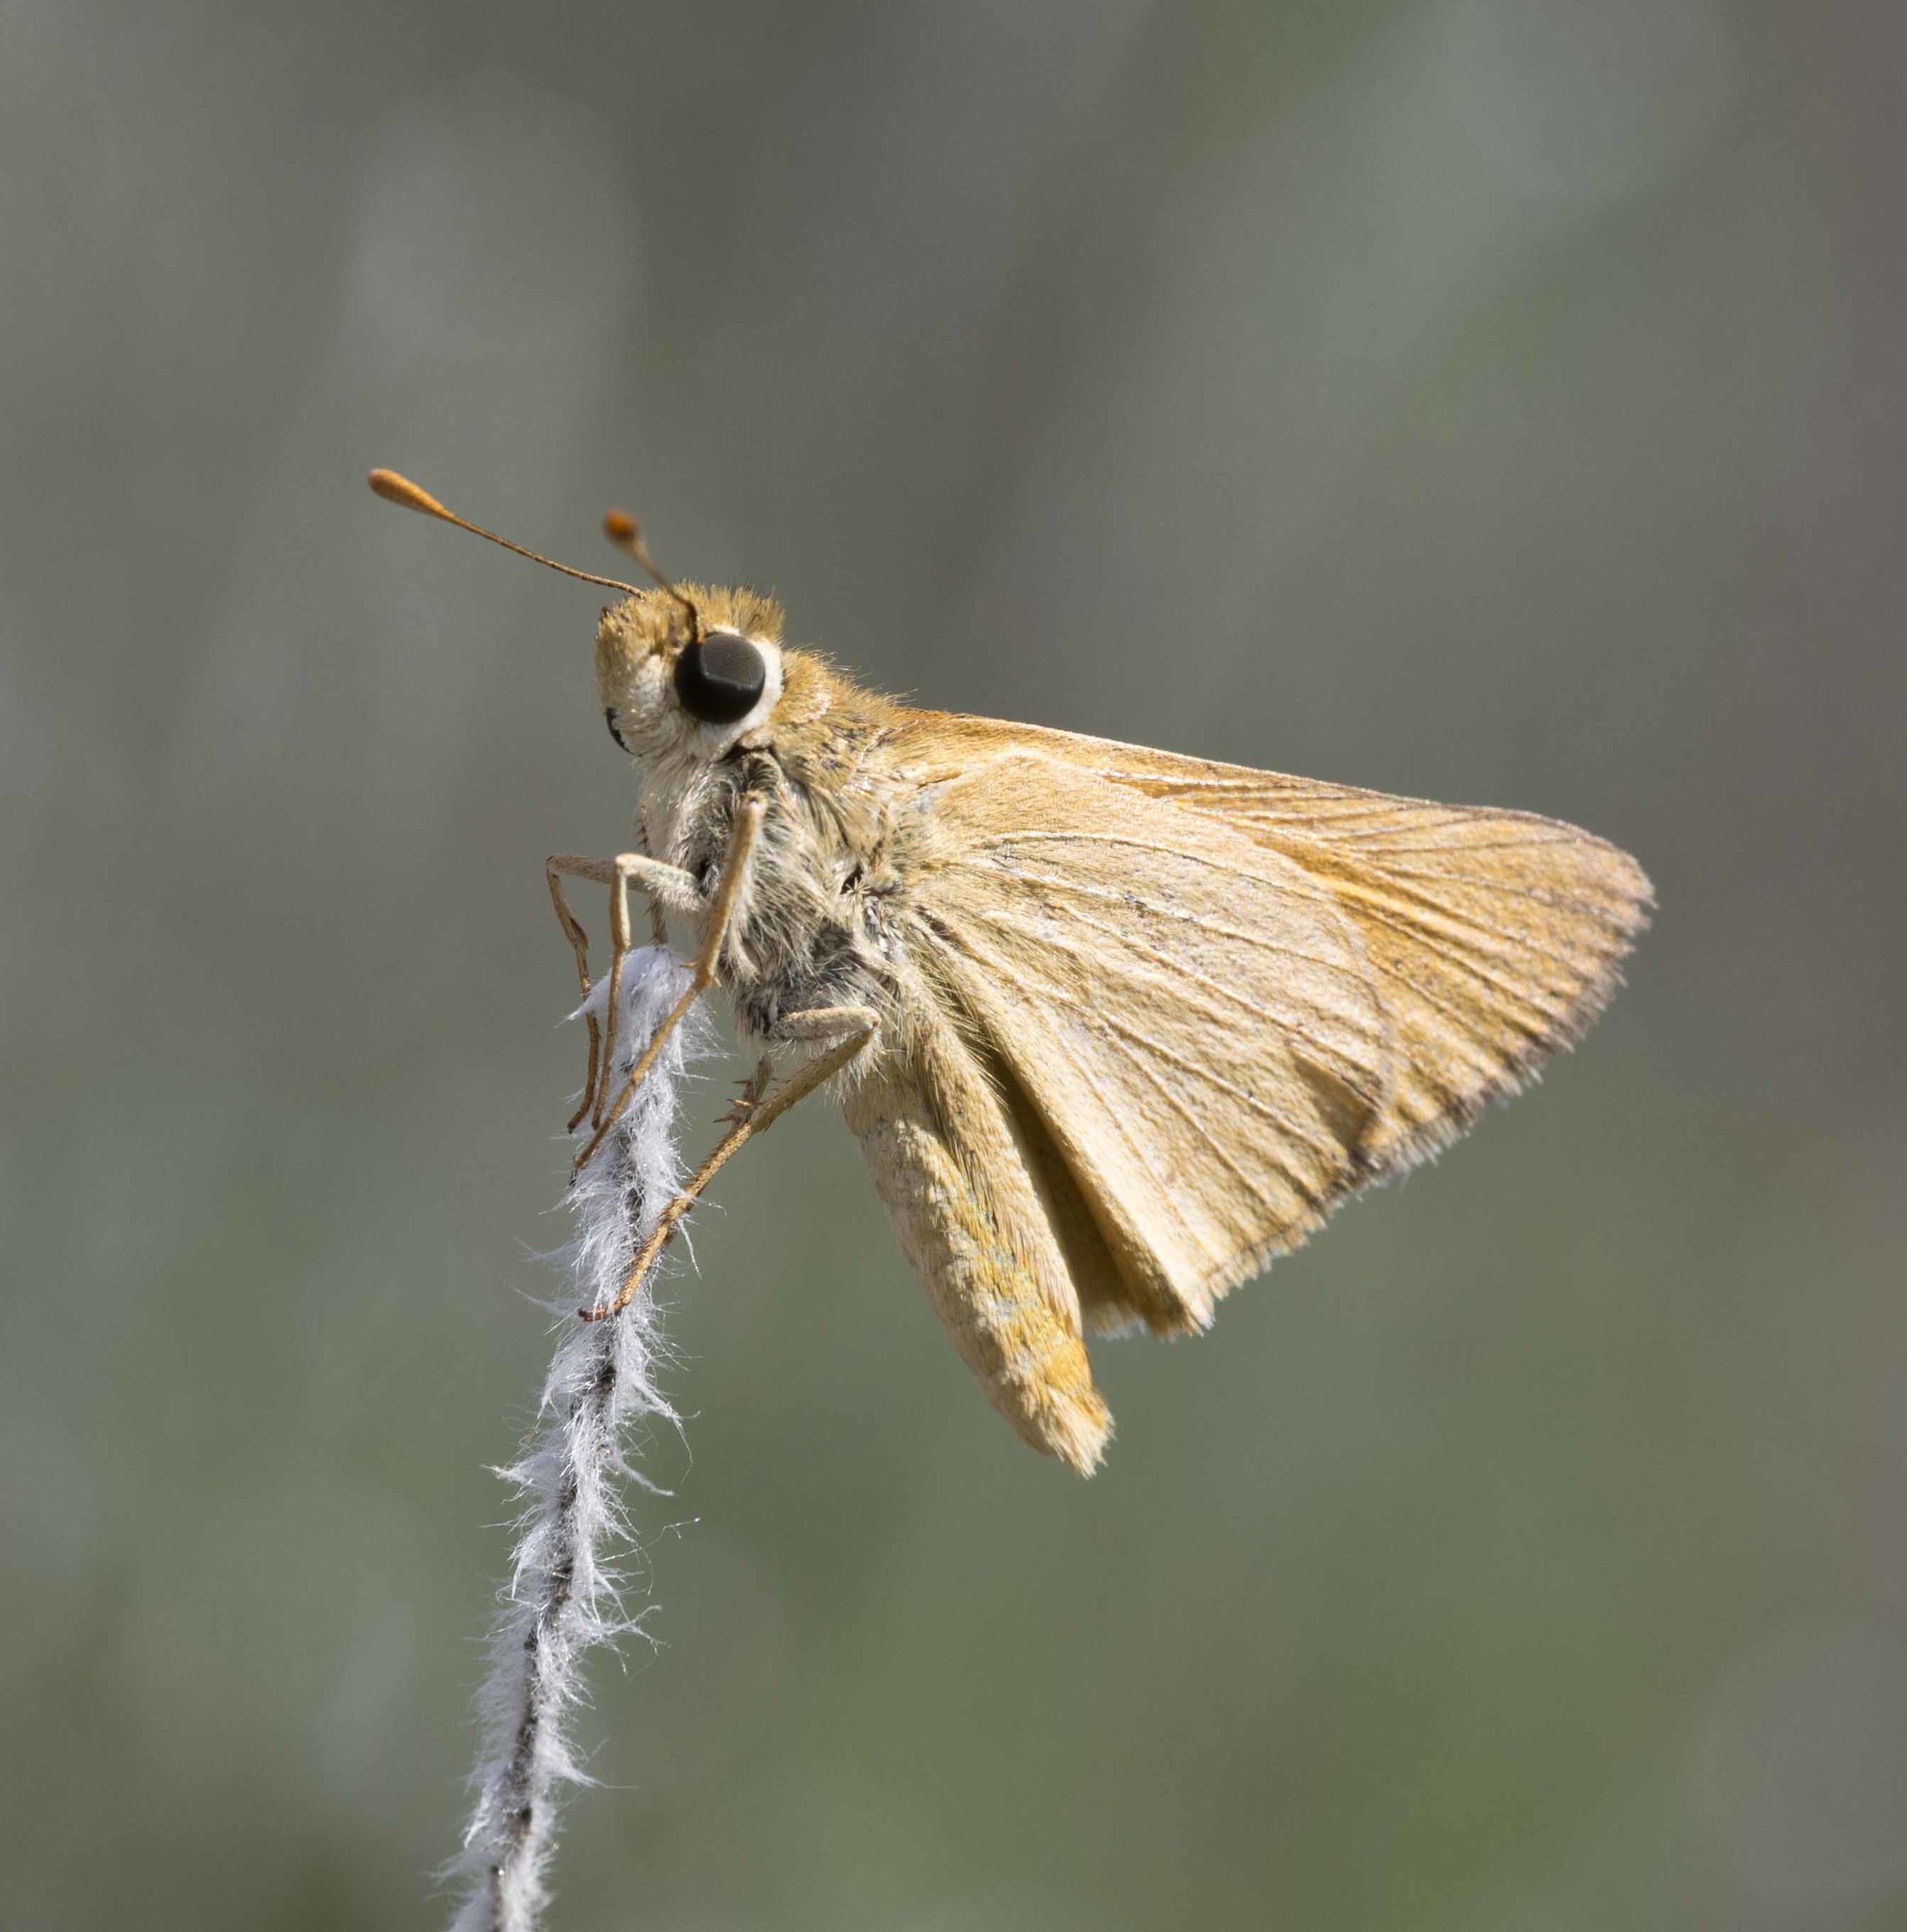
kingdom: Animalia
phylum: Arthropoda
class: Insecta
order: Lepidoptera
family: Hesperiidae
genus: Ochlodes
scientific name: Ochlodes sylvanoides
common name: Woodland skipper
